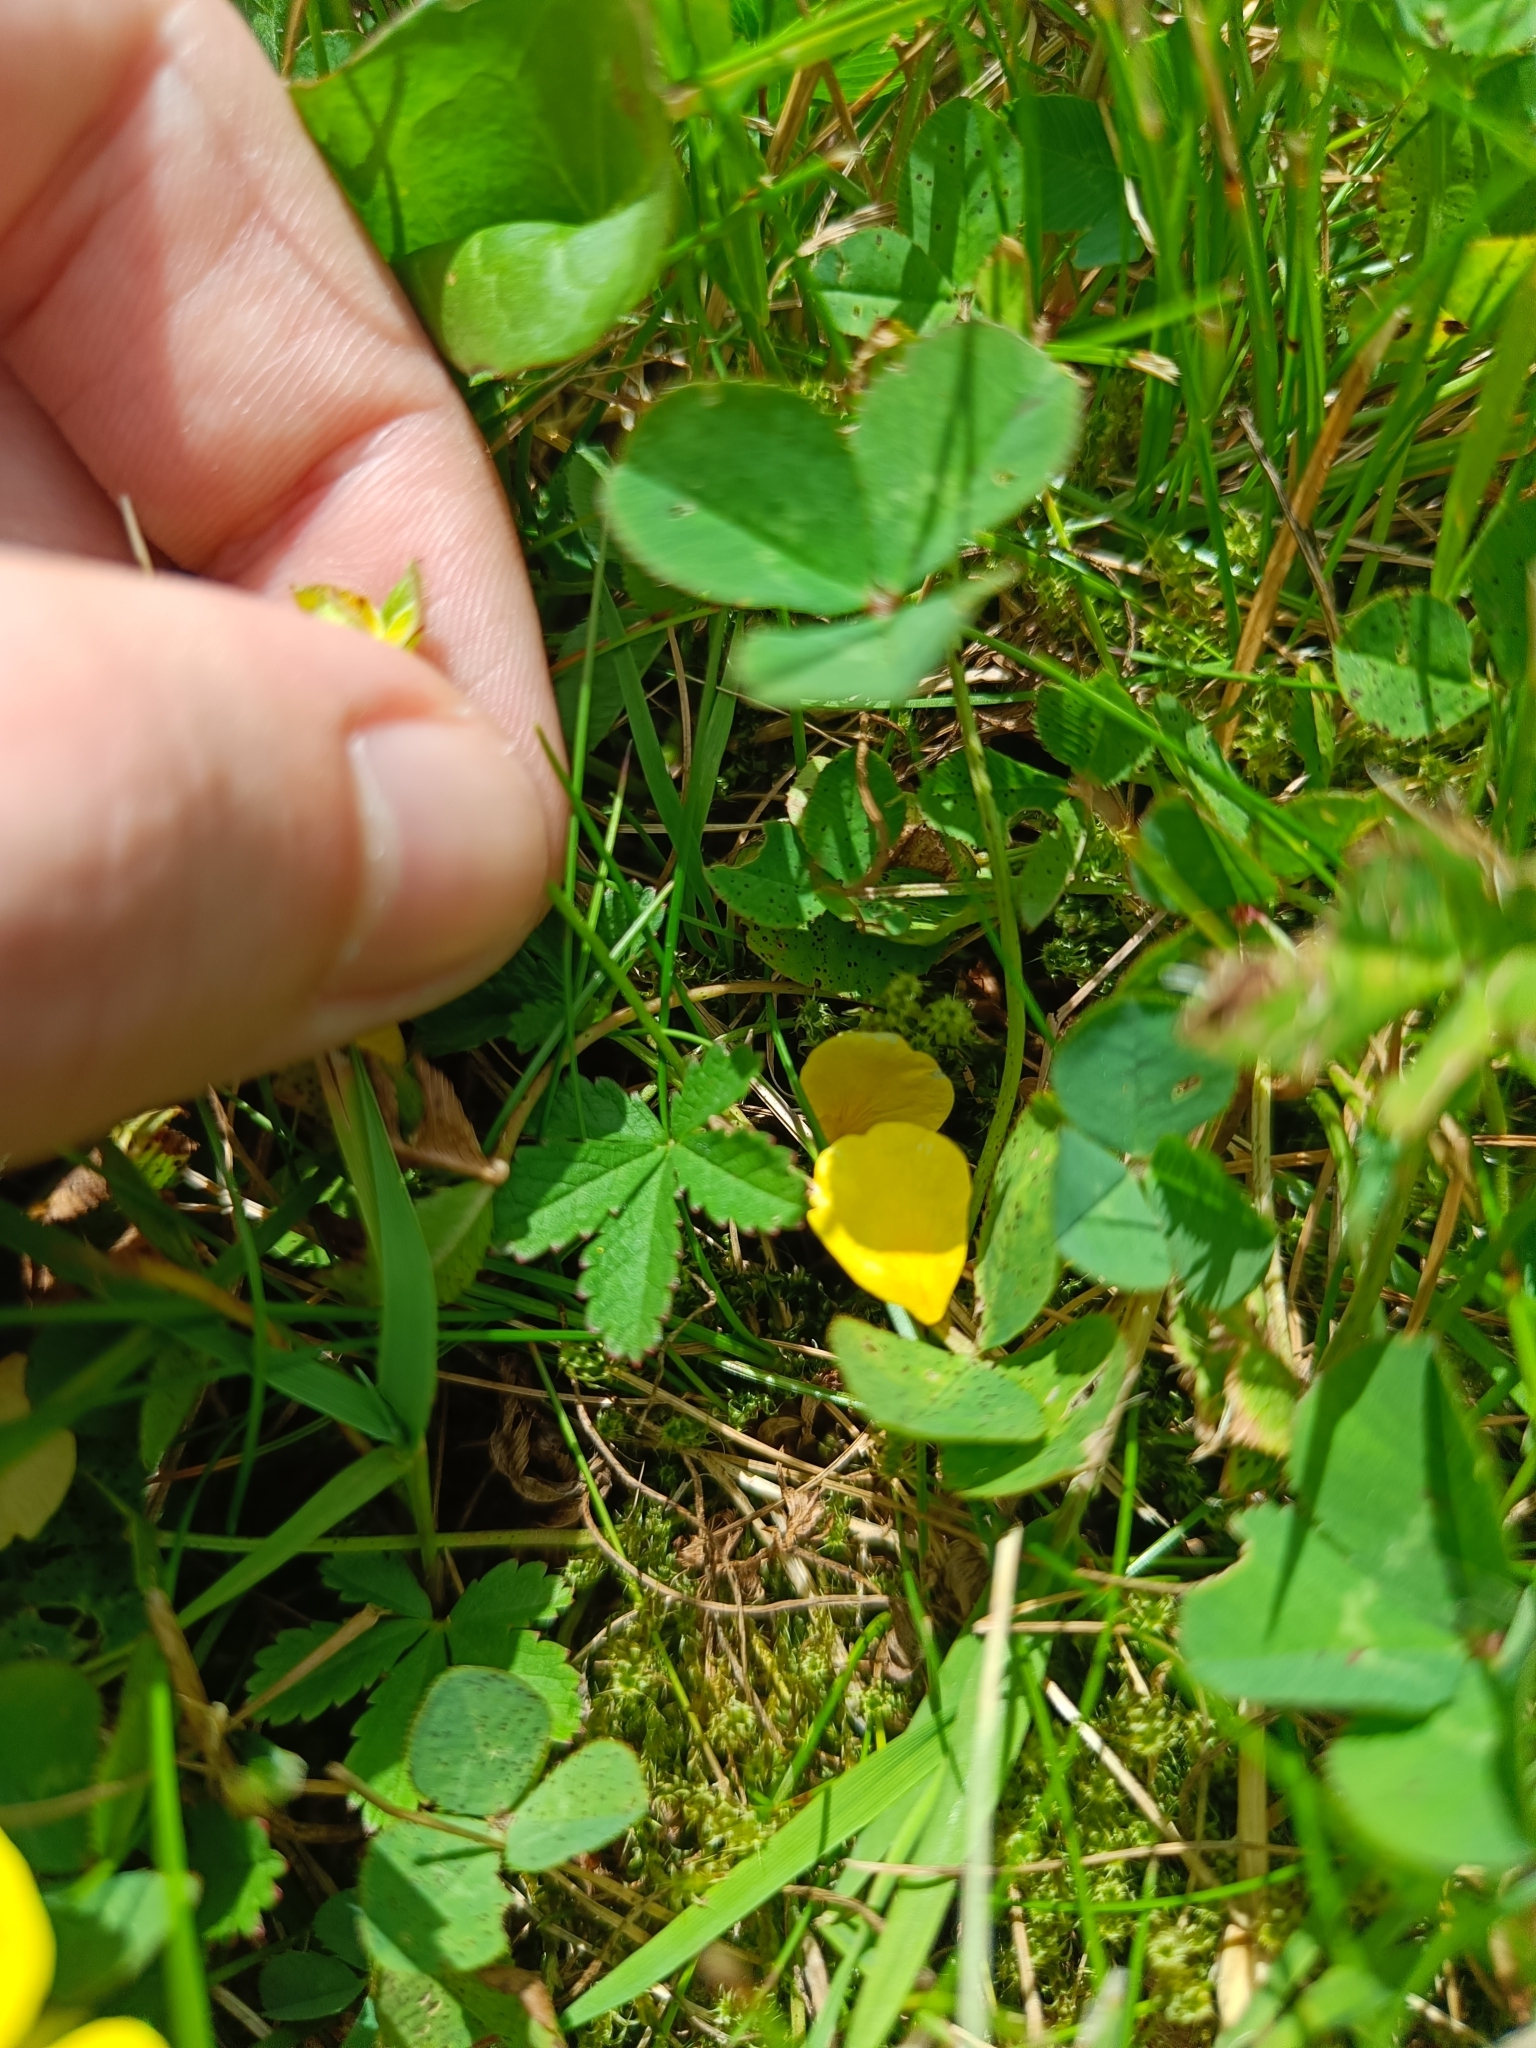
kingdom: Plantae
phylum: Tracheophyta
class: Magnoliopsida
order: Rosales
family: Rosaceae
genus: Potentilla
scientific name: Potentilla reptans
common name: Creeping cinquefoil
